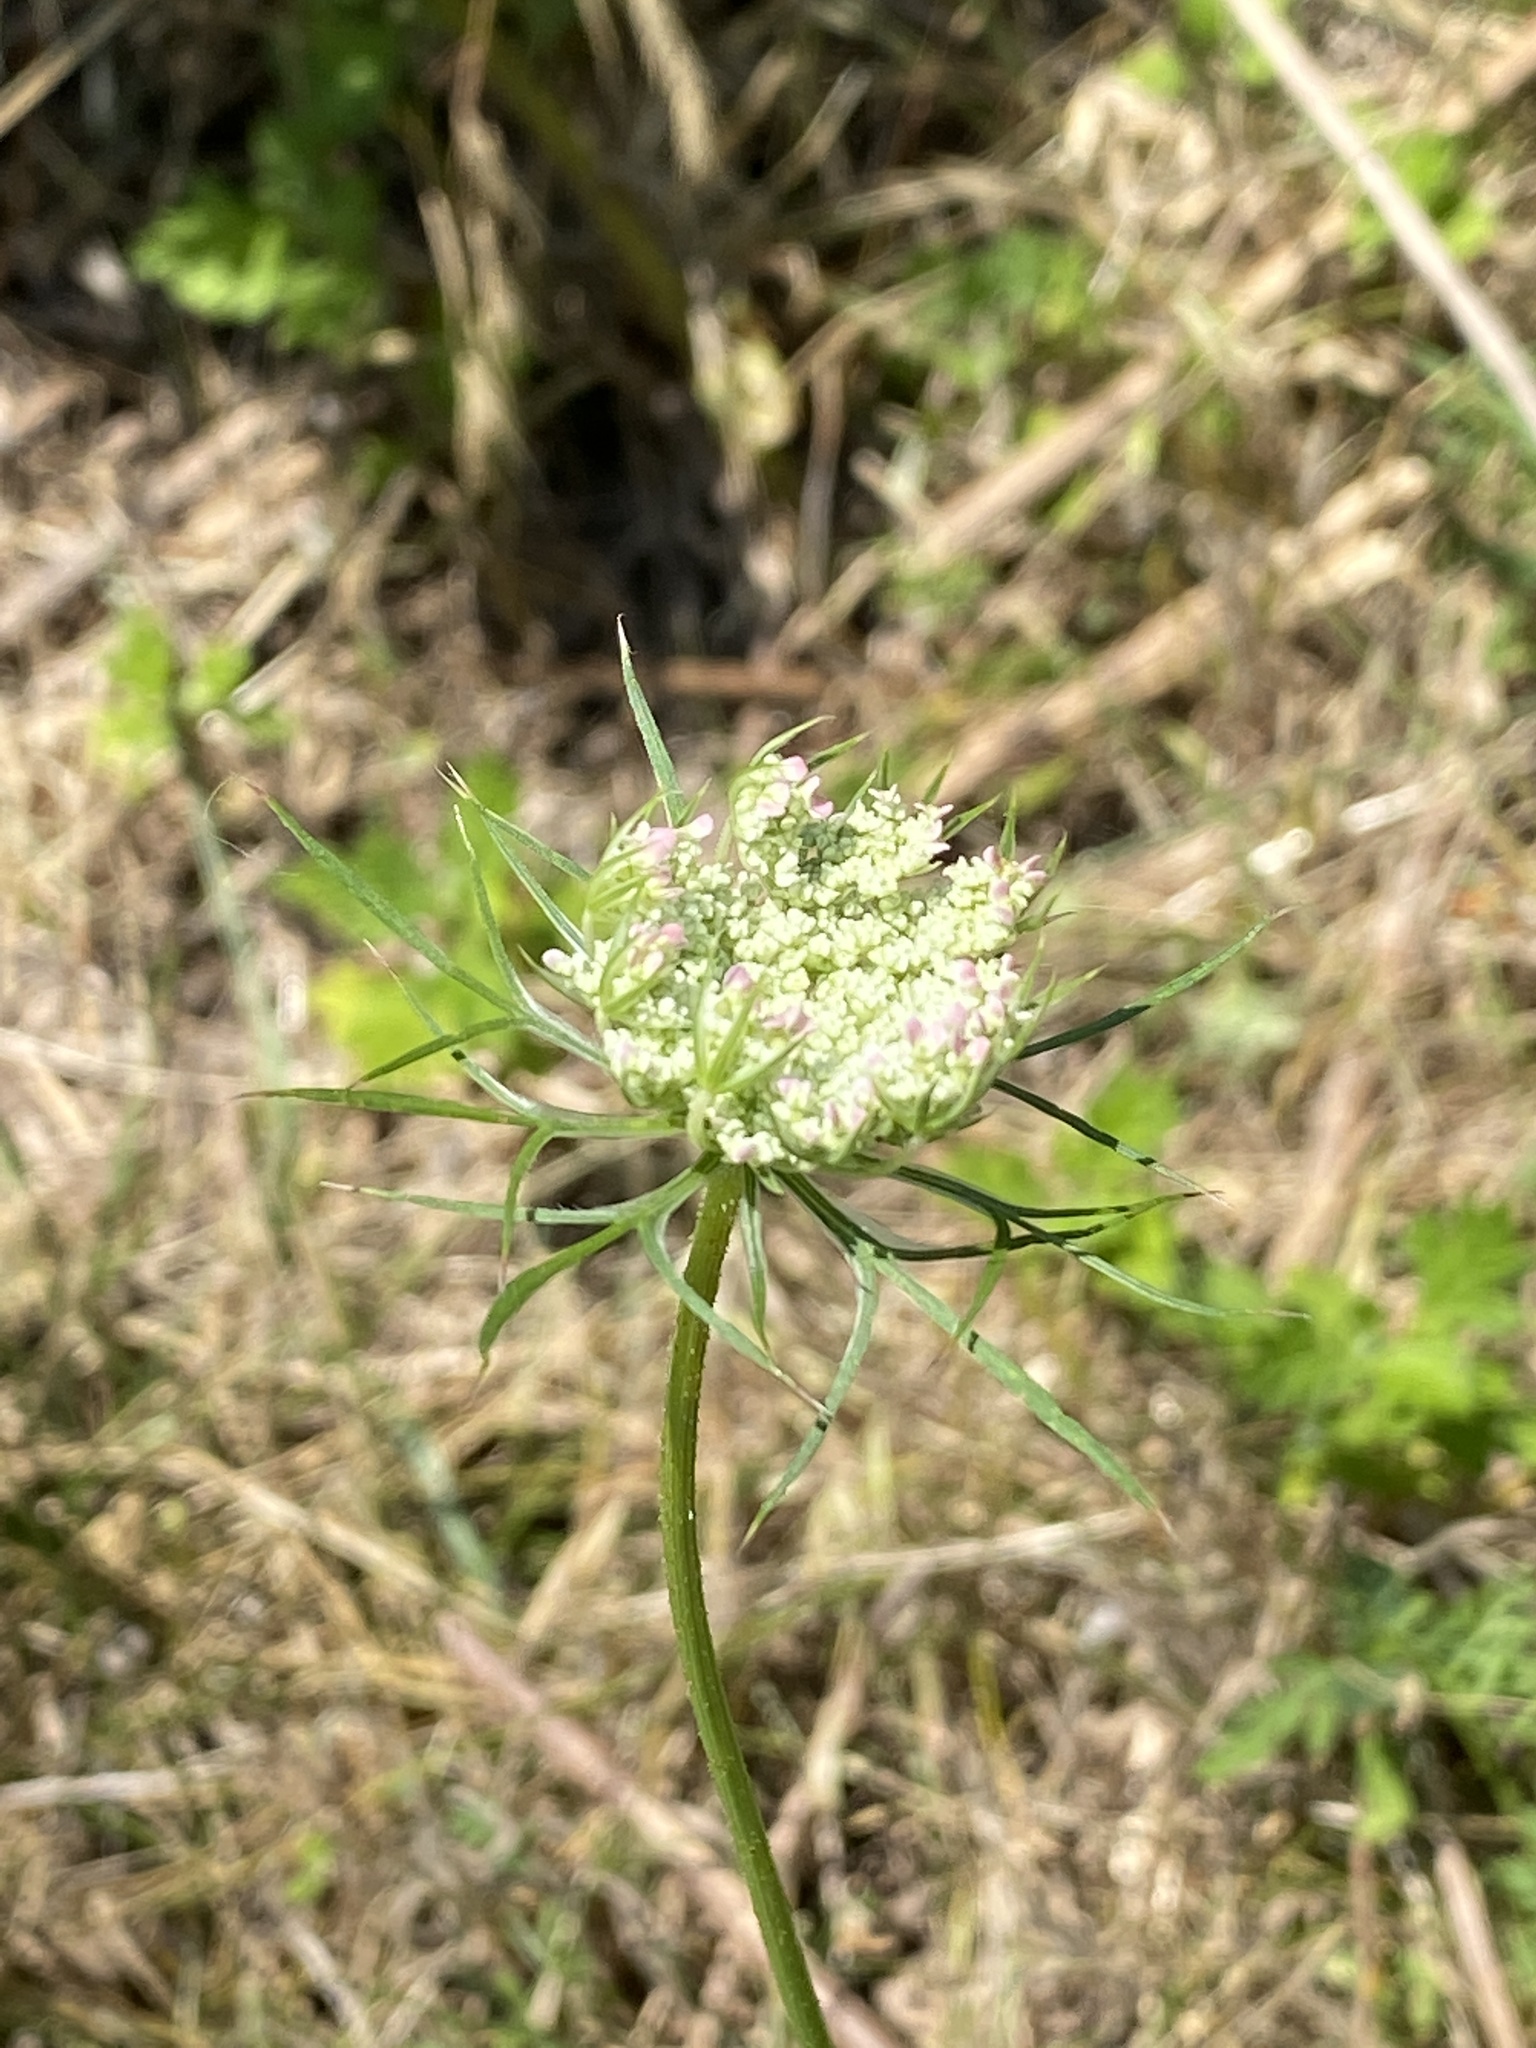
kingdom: Plantae
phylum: Tracheophyta
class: Magnoliopsida
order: Apiales
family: Apiaceae
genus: Daucus
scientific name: Daucus carota
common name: Wild carrot
